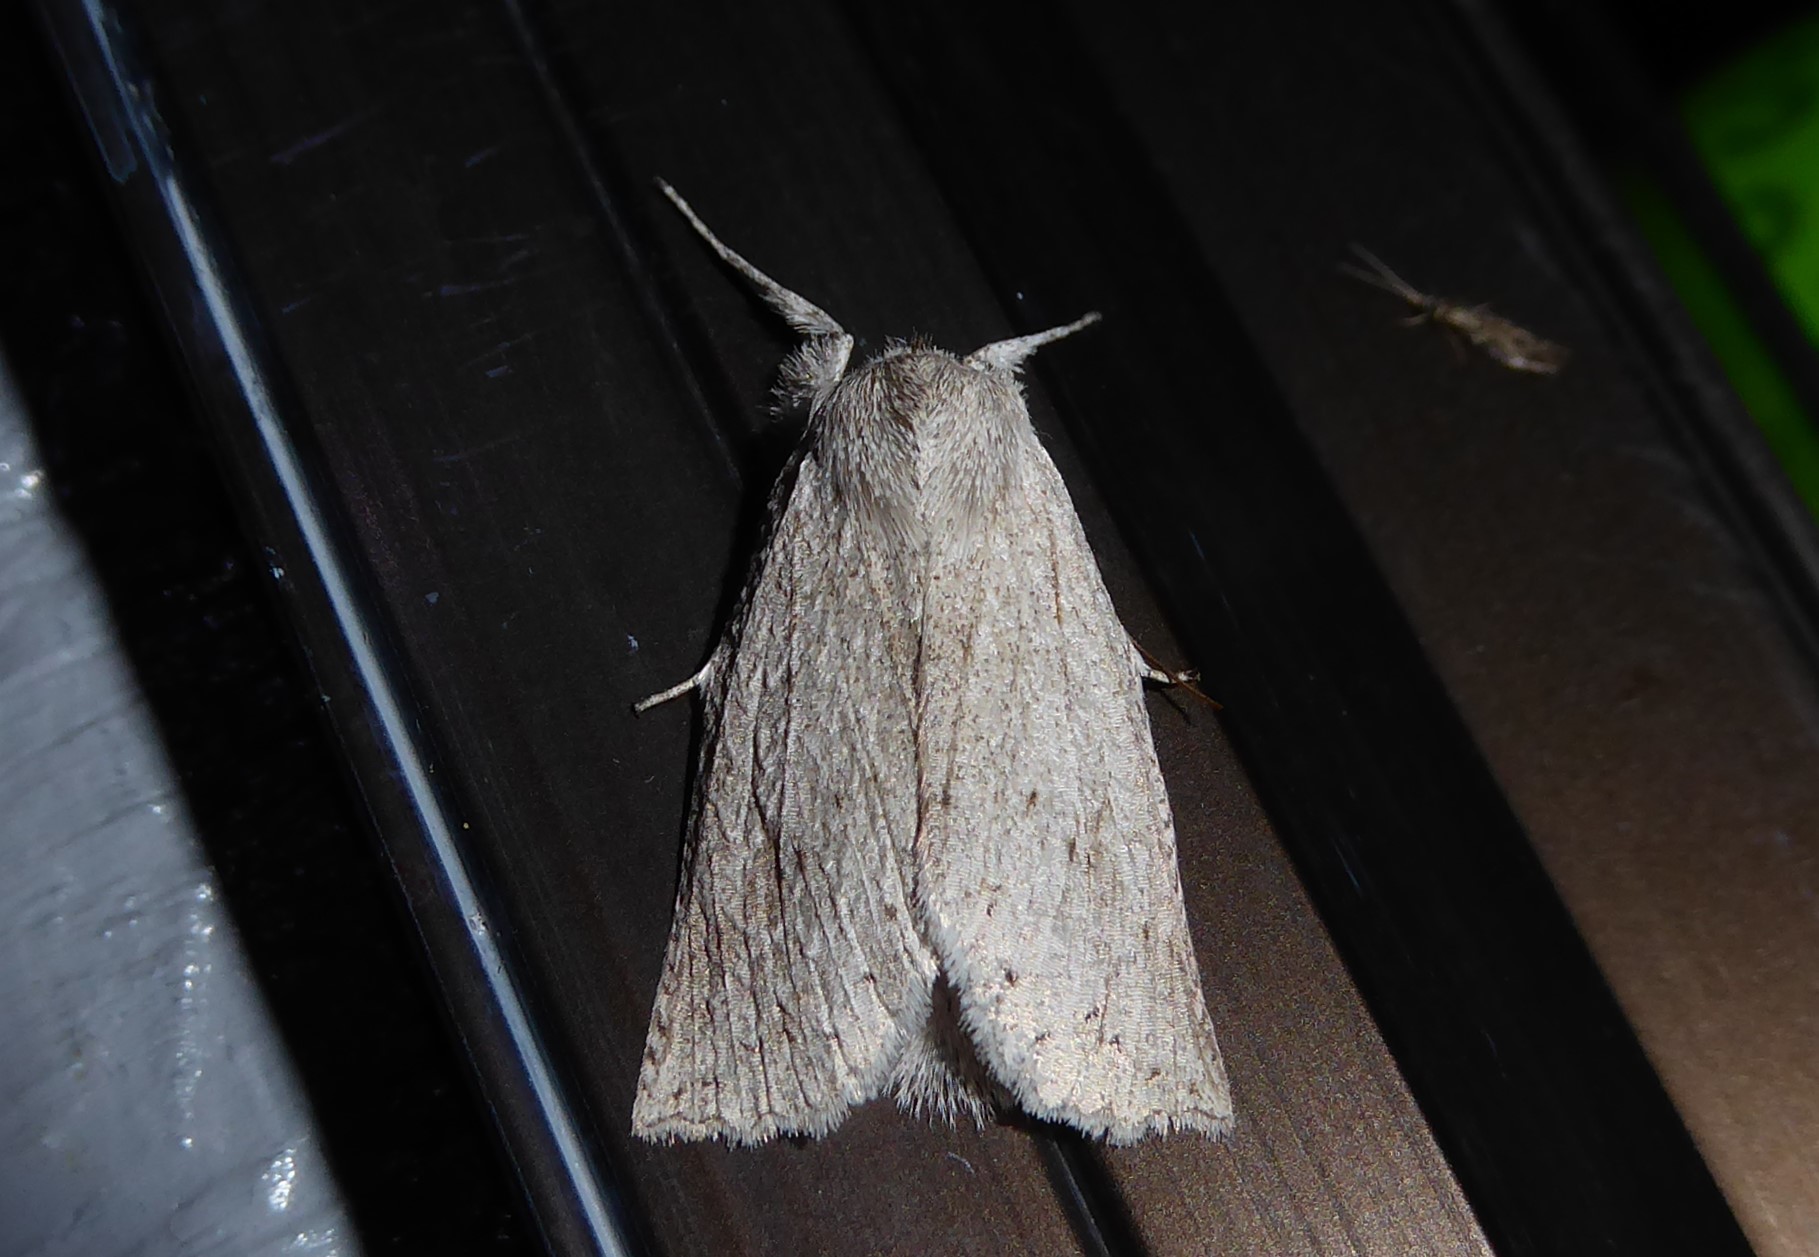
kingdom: Animalia
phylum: Arthropoda
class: Insecta
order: Lepidoptera
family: Geometridae
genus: Declana
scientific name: Declana leptomera
